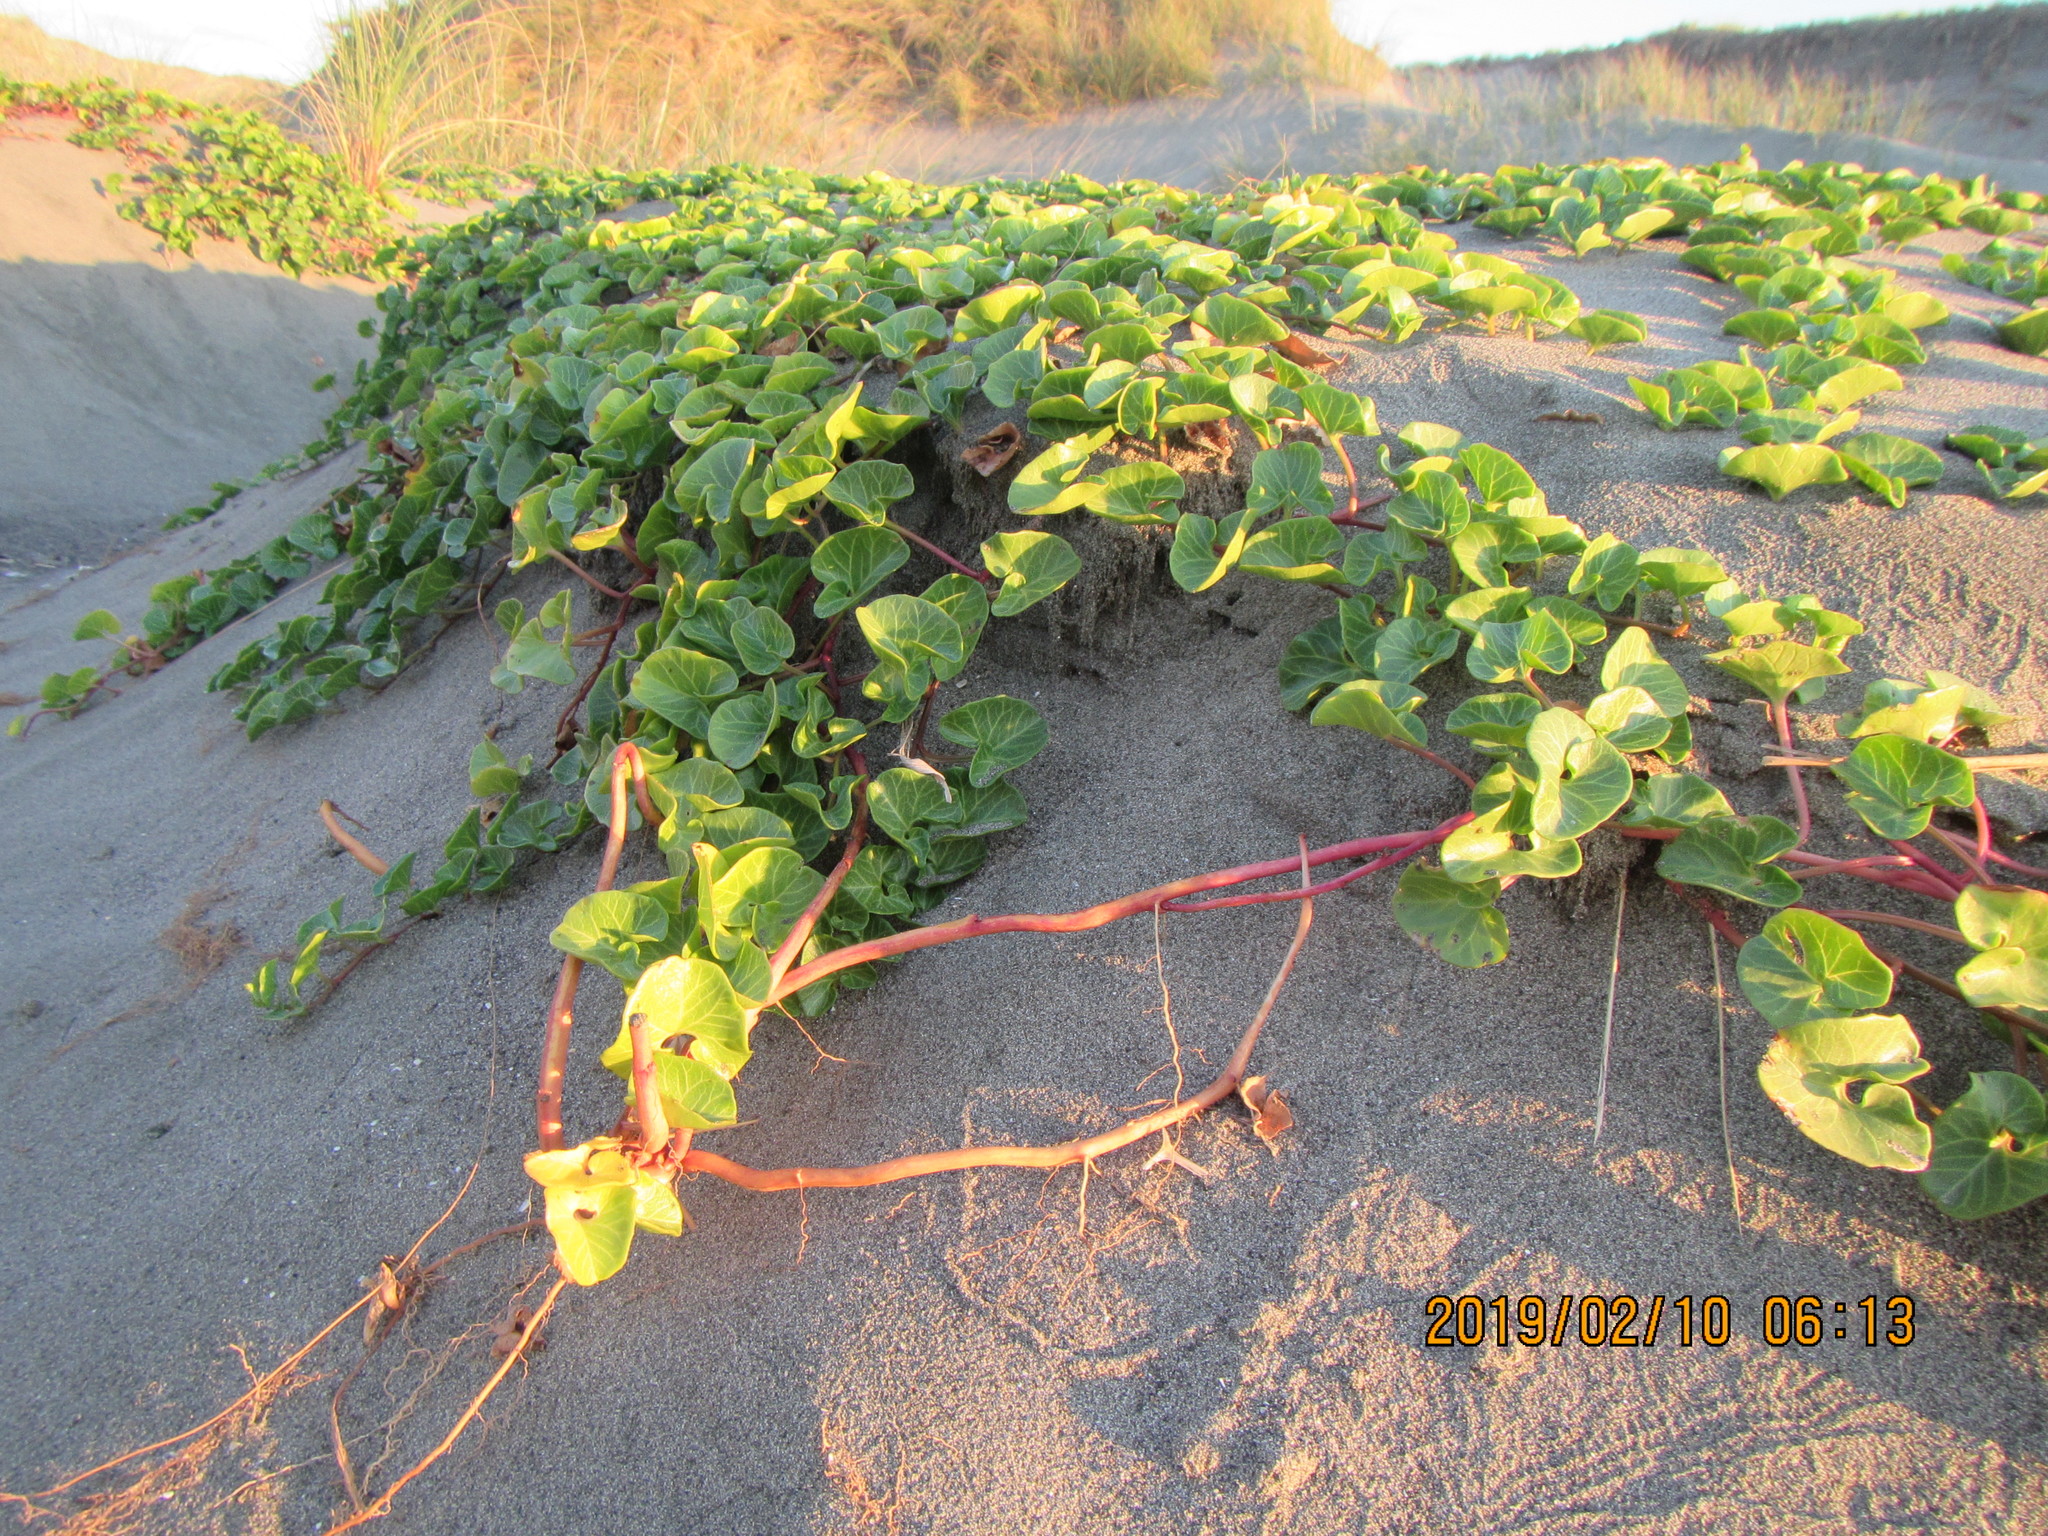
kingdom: Plantae
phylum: Tracheophyta
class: Magnoliopsida
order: Solanales
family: Convolvulaceae
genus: Calystegia
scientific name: Calystegia soldanella
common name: Sea bindweed
